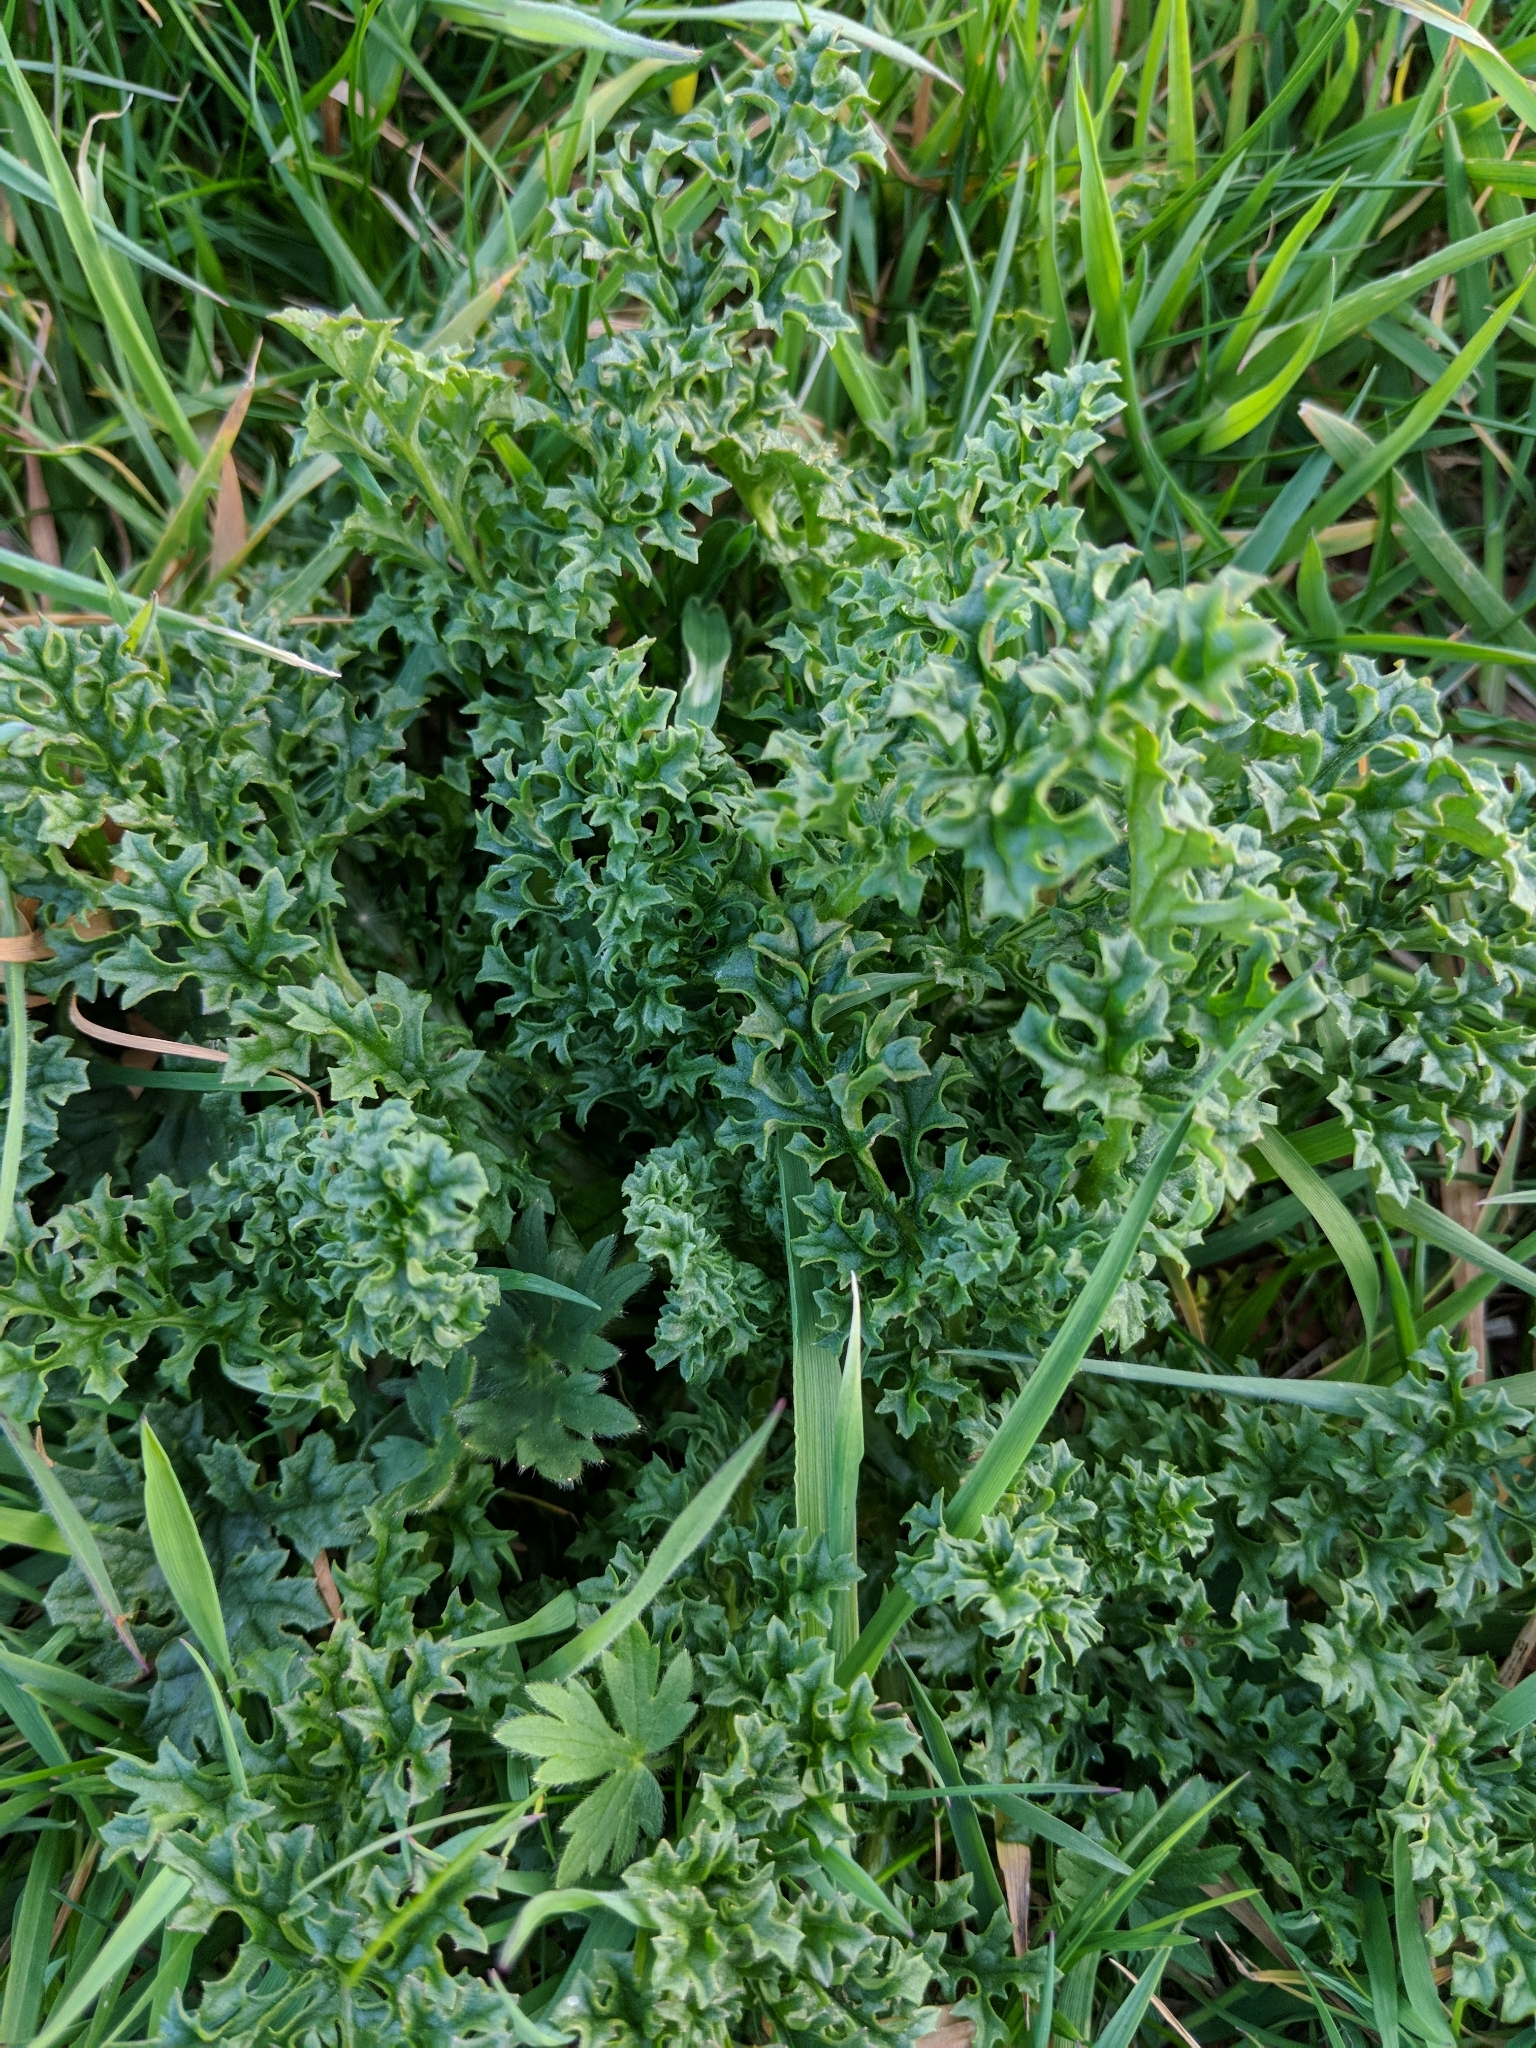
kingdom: Plantae
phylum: Tracheophyta
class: Magnoliopsida
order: Asterales
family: Asteraceae
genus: Jacobaea
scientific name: Jacobaea vulgaris
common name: Stinking willie
